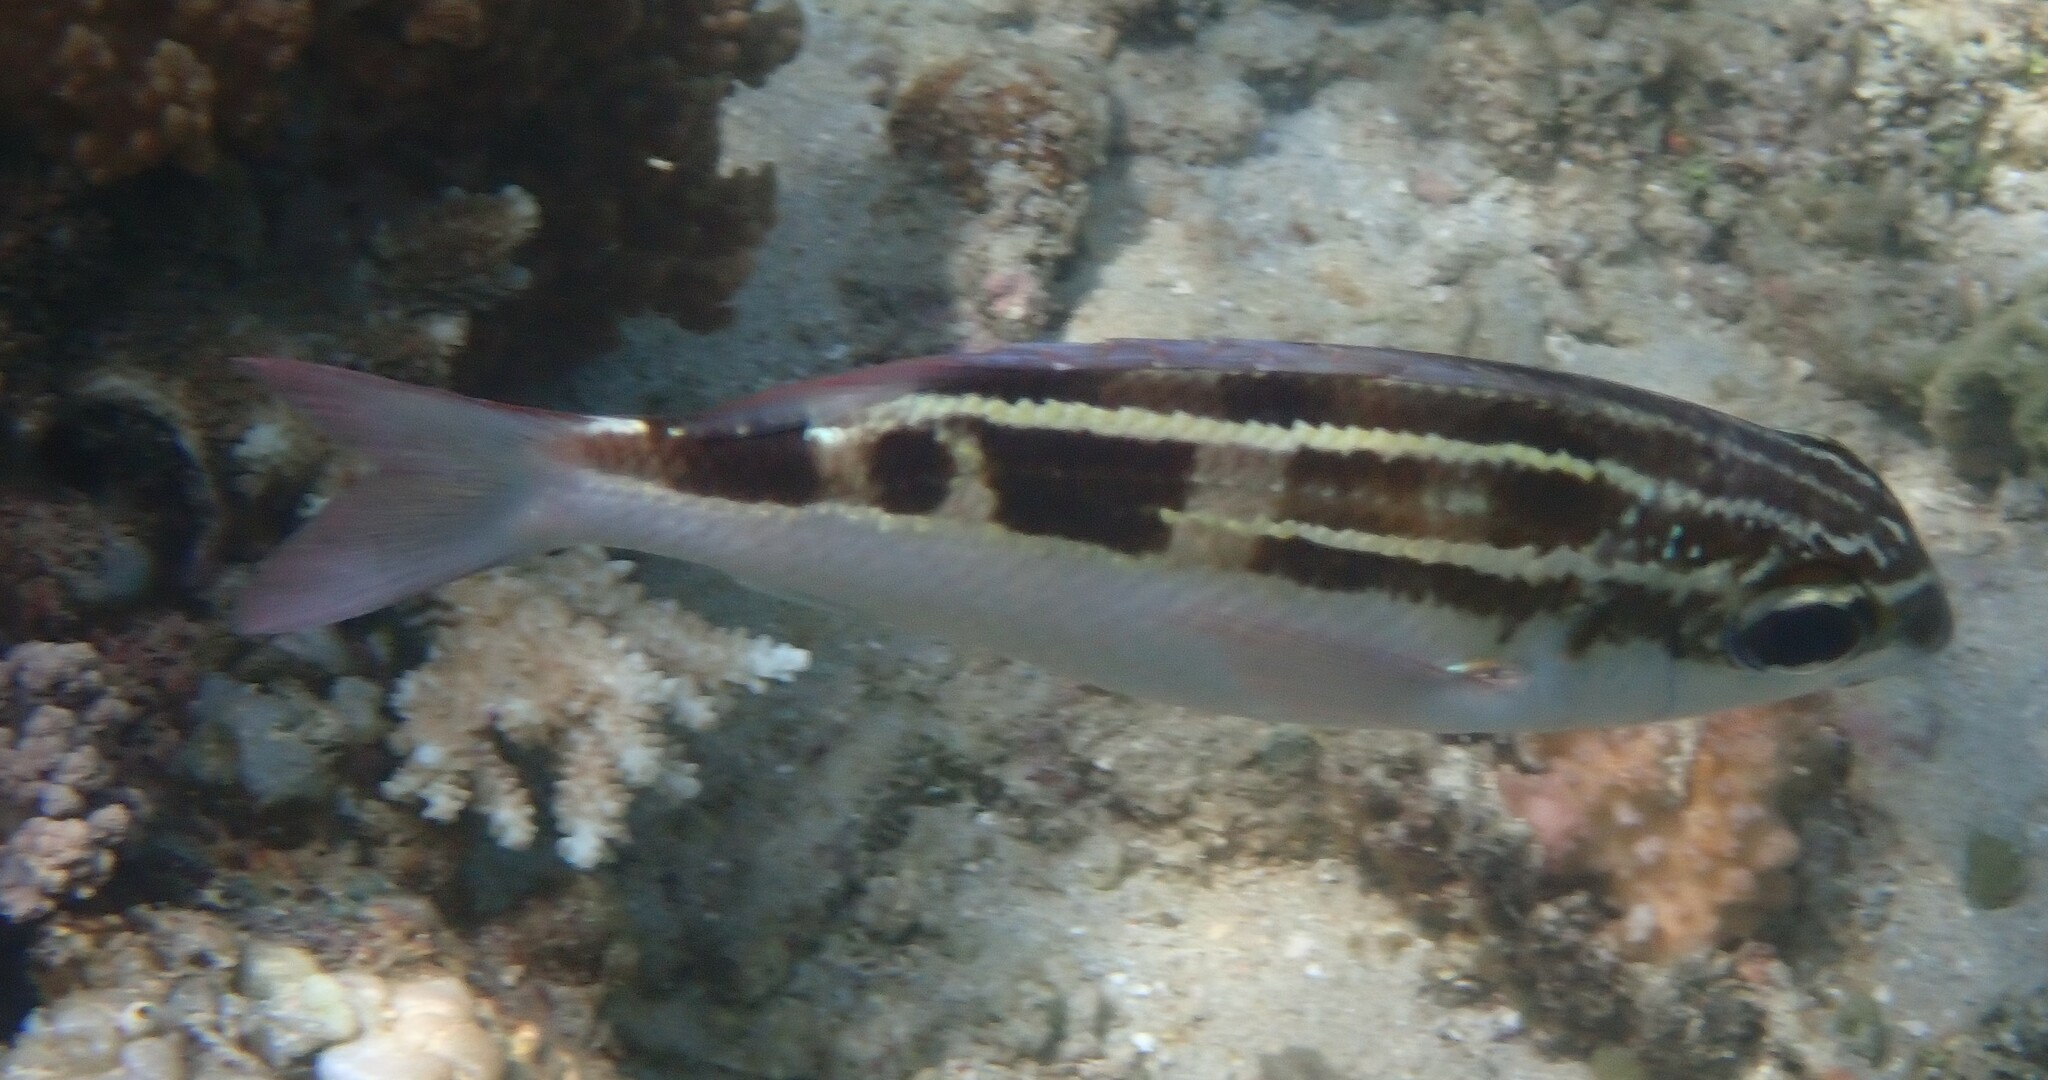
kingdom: Animalia
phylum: Chordata
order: Perciformes
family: Nemipteridae
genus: Scolopsis
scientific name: Scolopsis lineata
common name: Striped monocle bream
